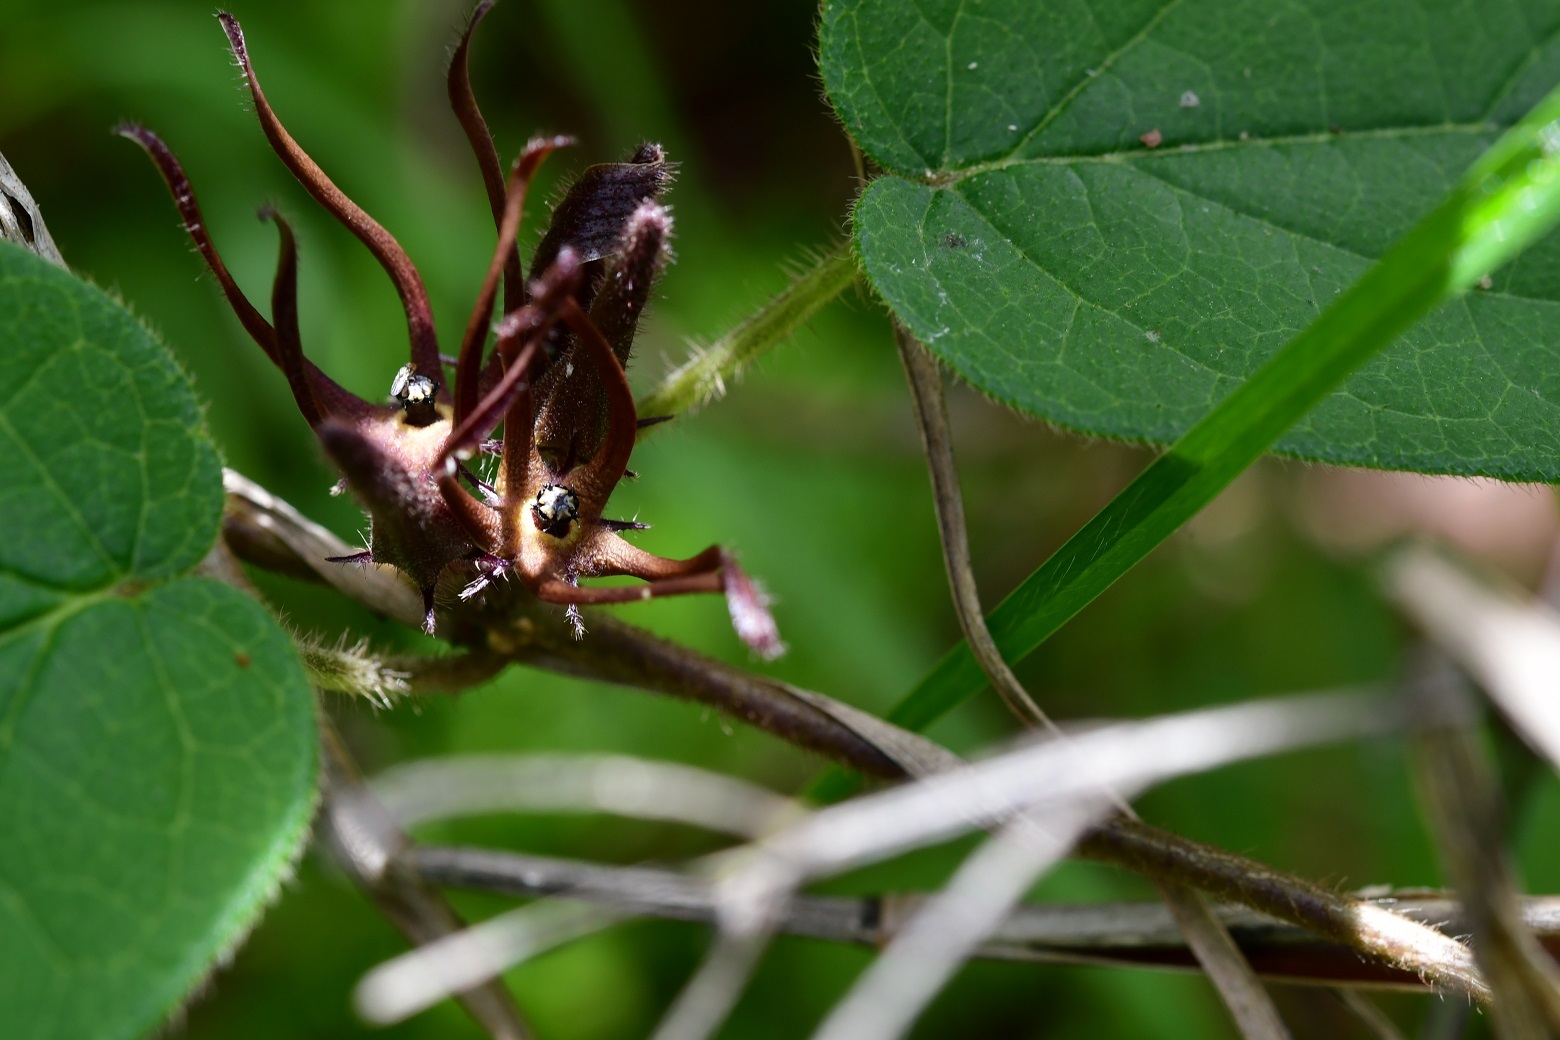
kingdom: Plantae
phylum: Tracheophyta
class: Magnoliopsida
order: Gentianales
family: Apocynaceae
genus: Matelea
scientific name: Matelea medusae
